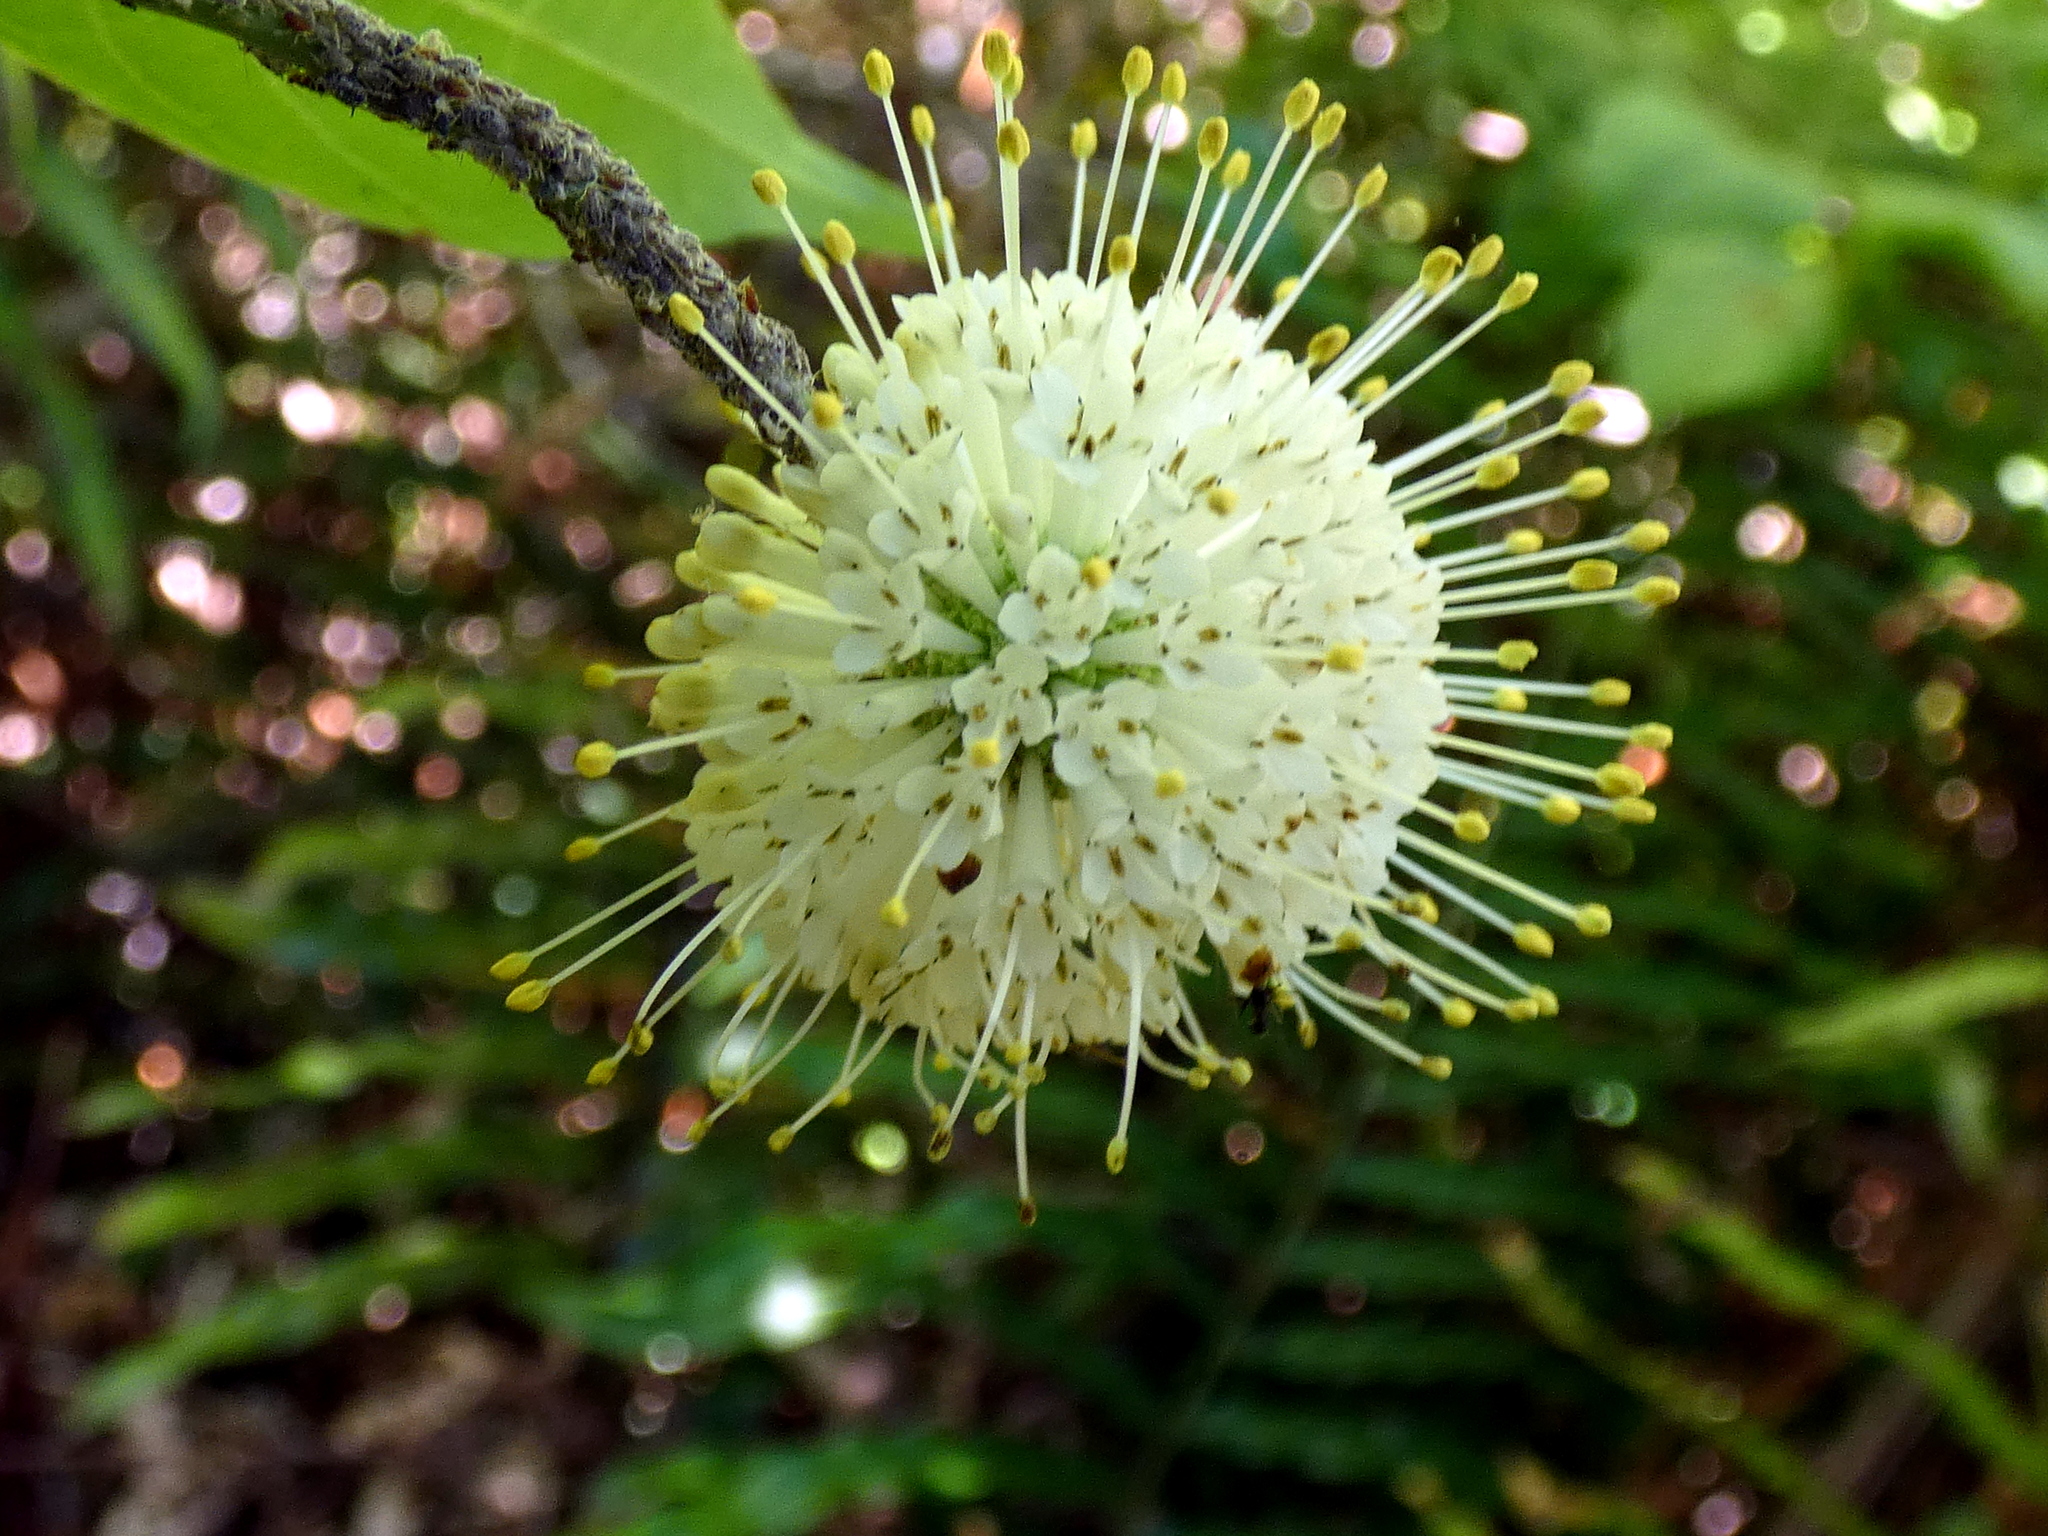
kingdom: Plantae
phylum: Tracheophyta
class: Magnoliopsida
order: Gentianales
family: Rubiaceae
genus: Cephalanthus
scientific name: Cephalanthus occidentalis
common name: Button-willow
